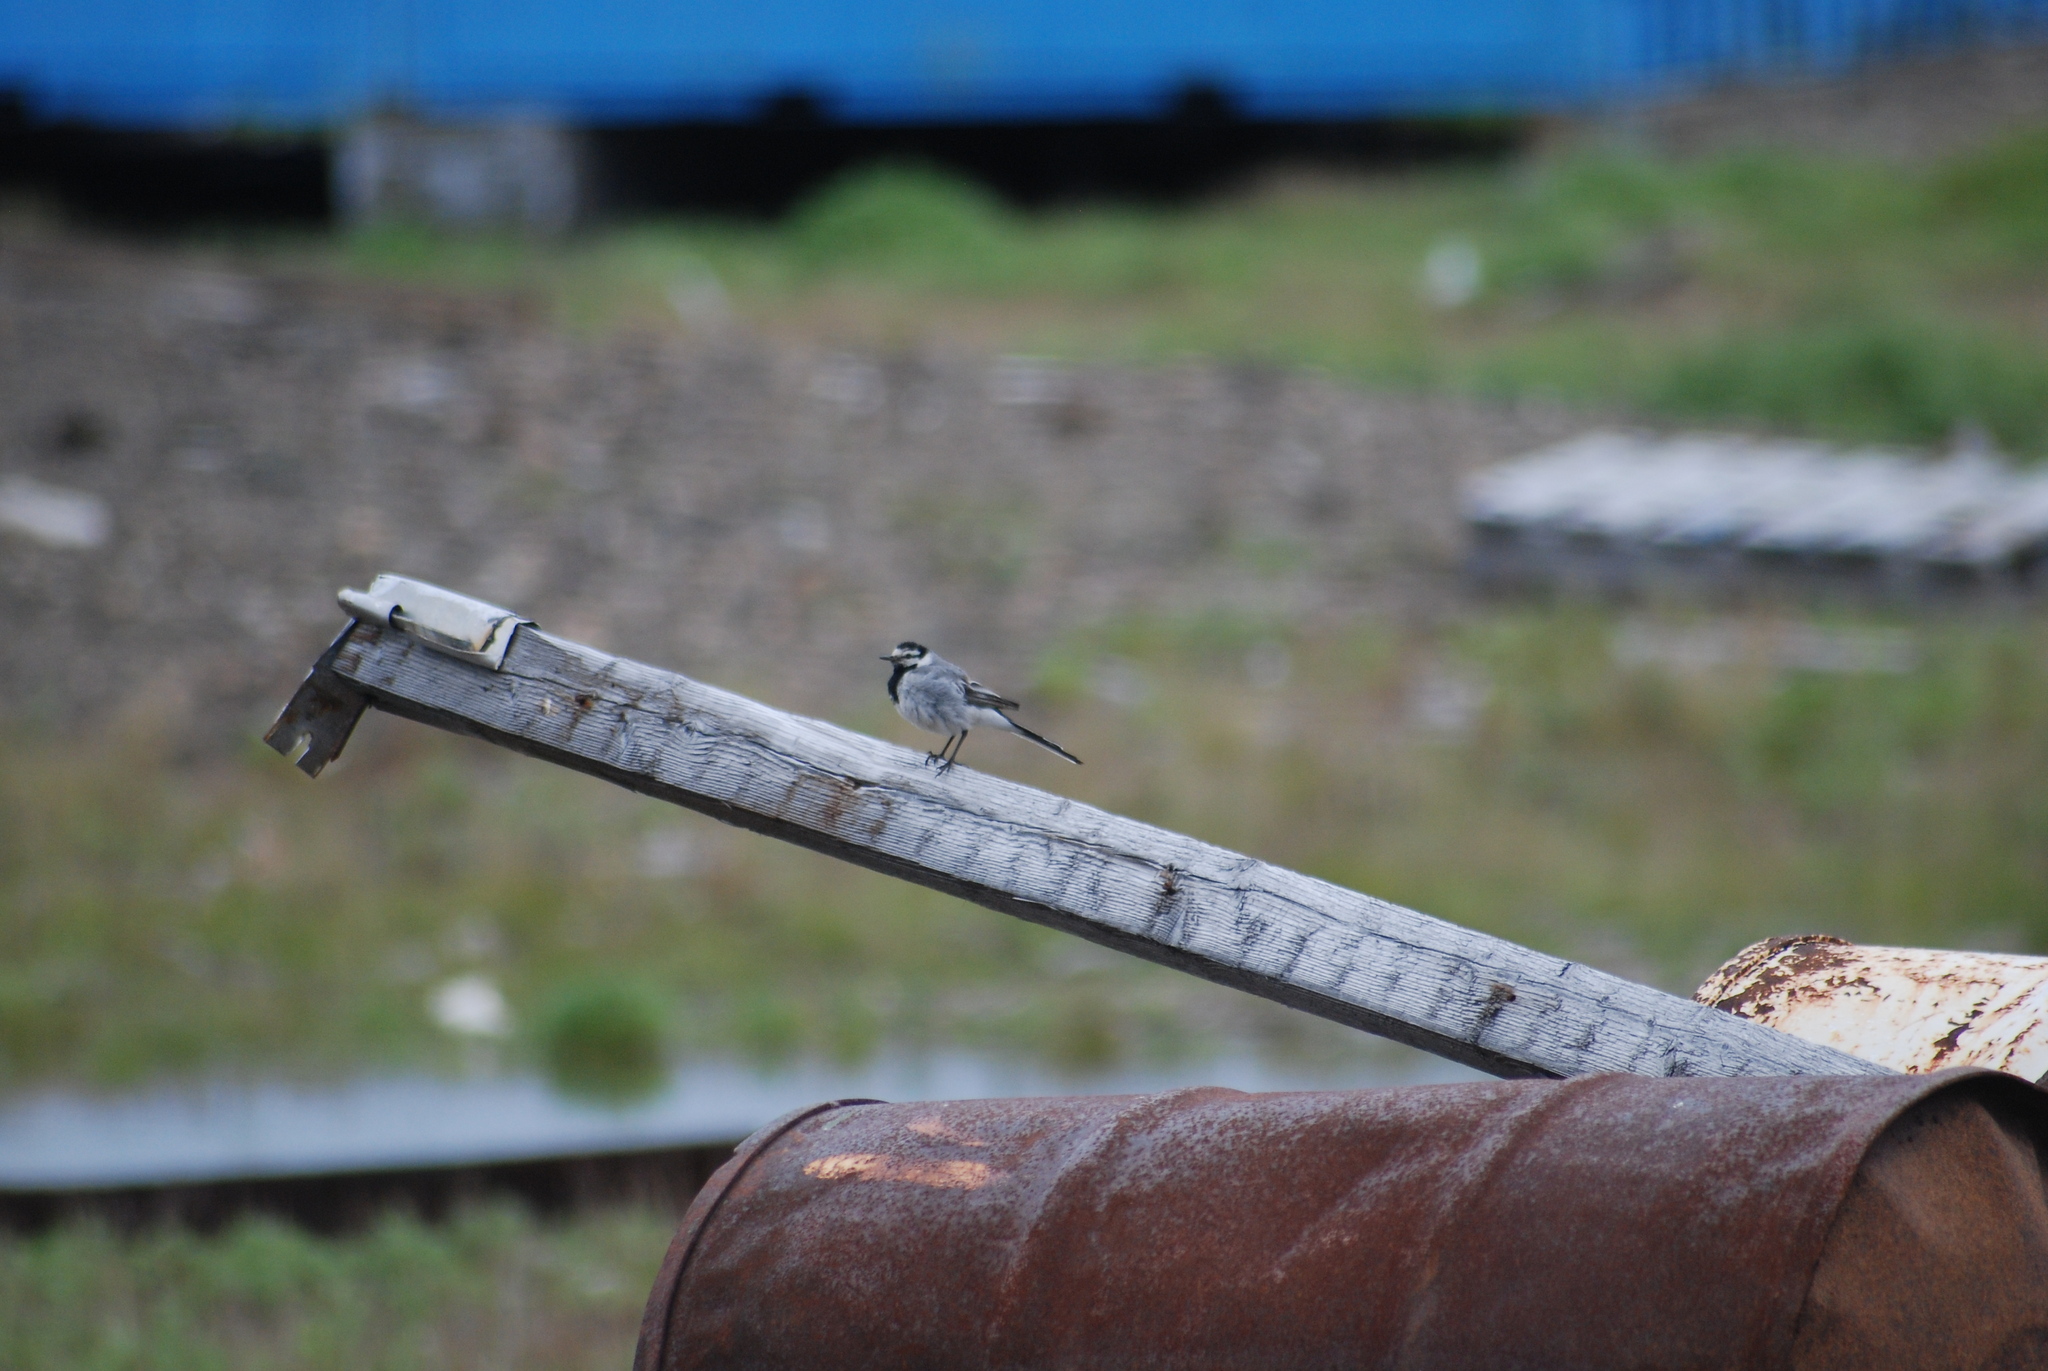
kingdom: Animalia
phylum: Chordata
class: Aves
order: Passeriformes
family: Motacillidae
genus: Motacilla
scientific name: Motacilla alba
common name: White wagtail
